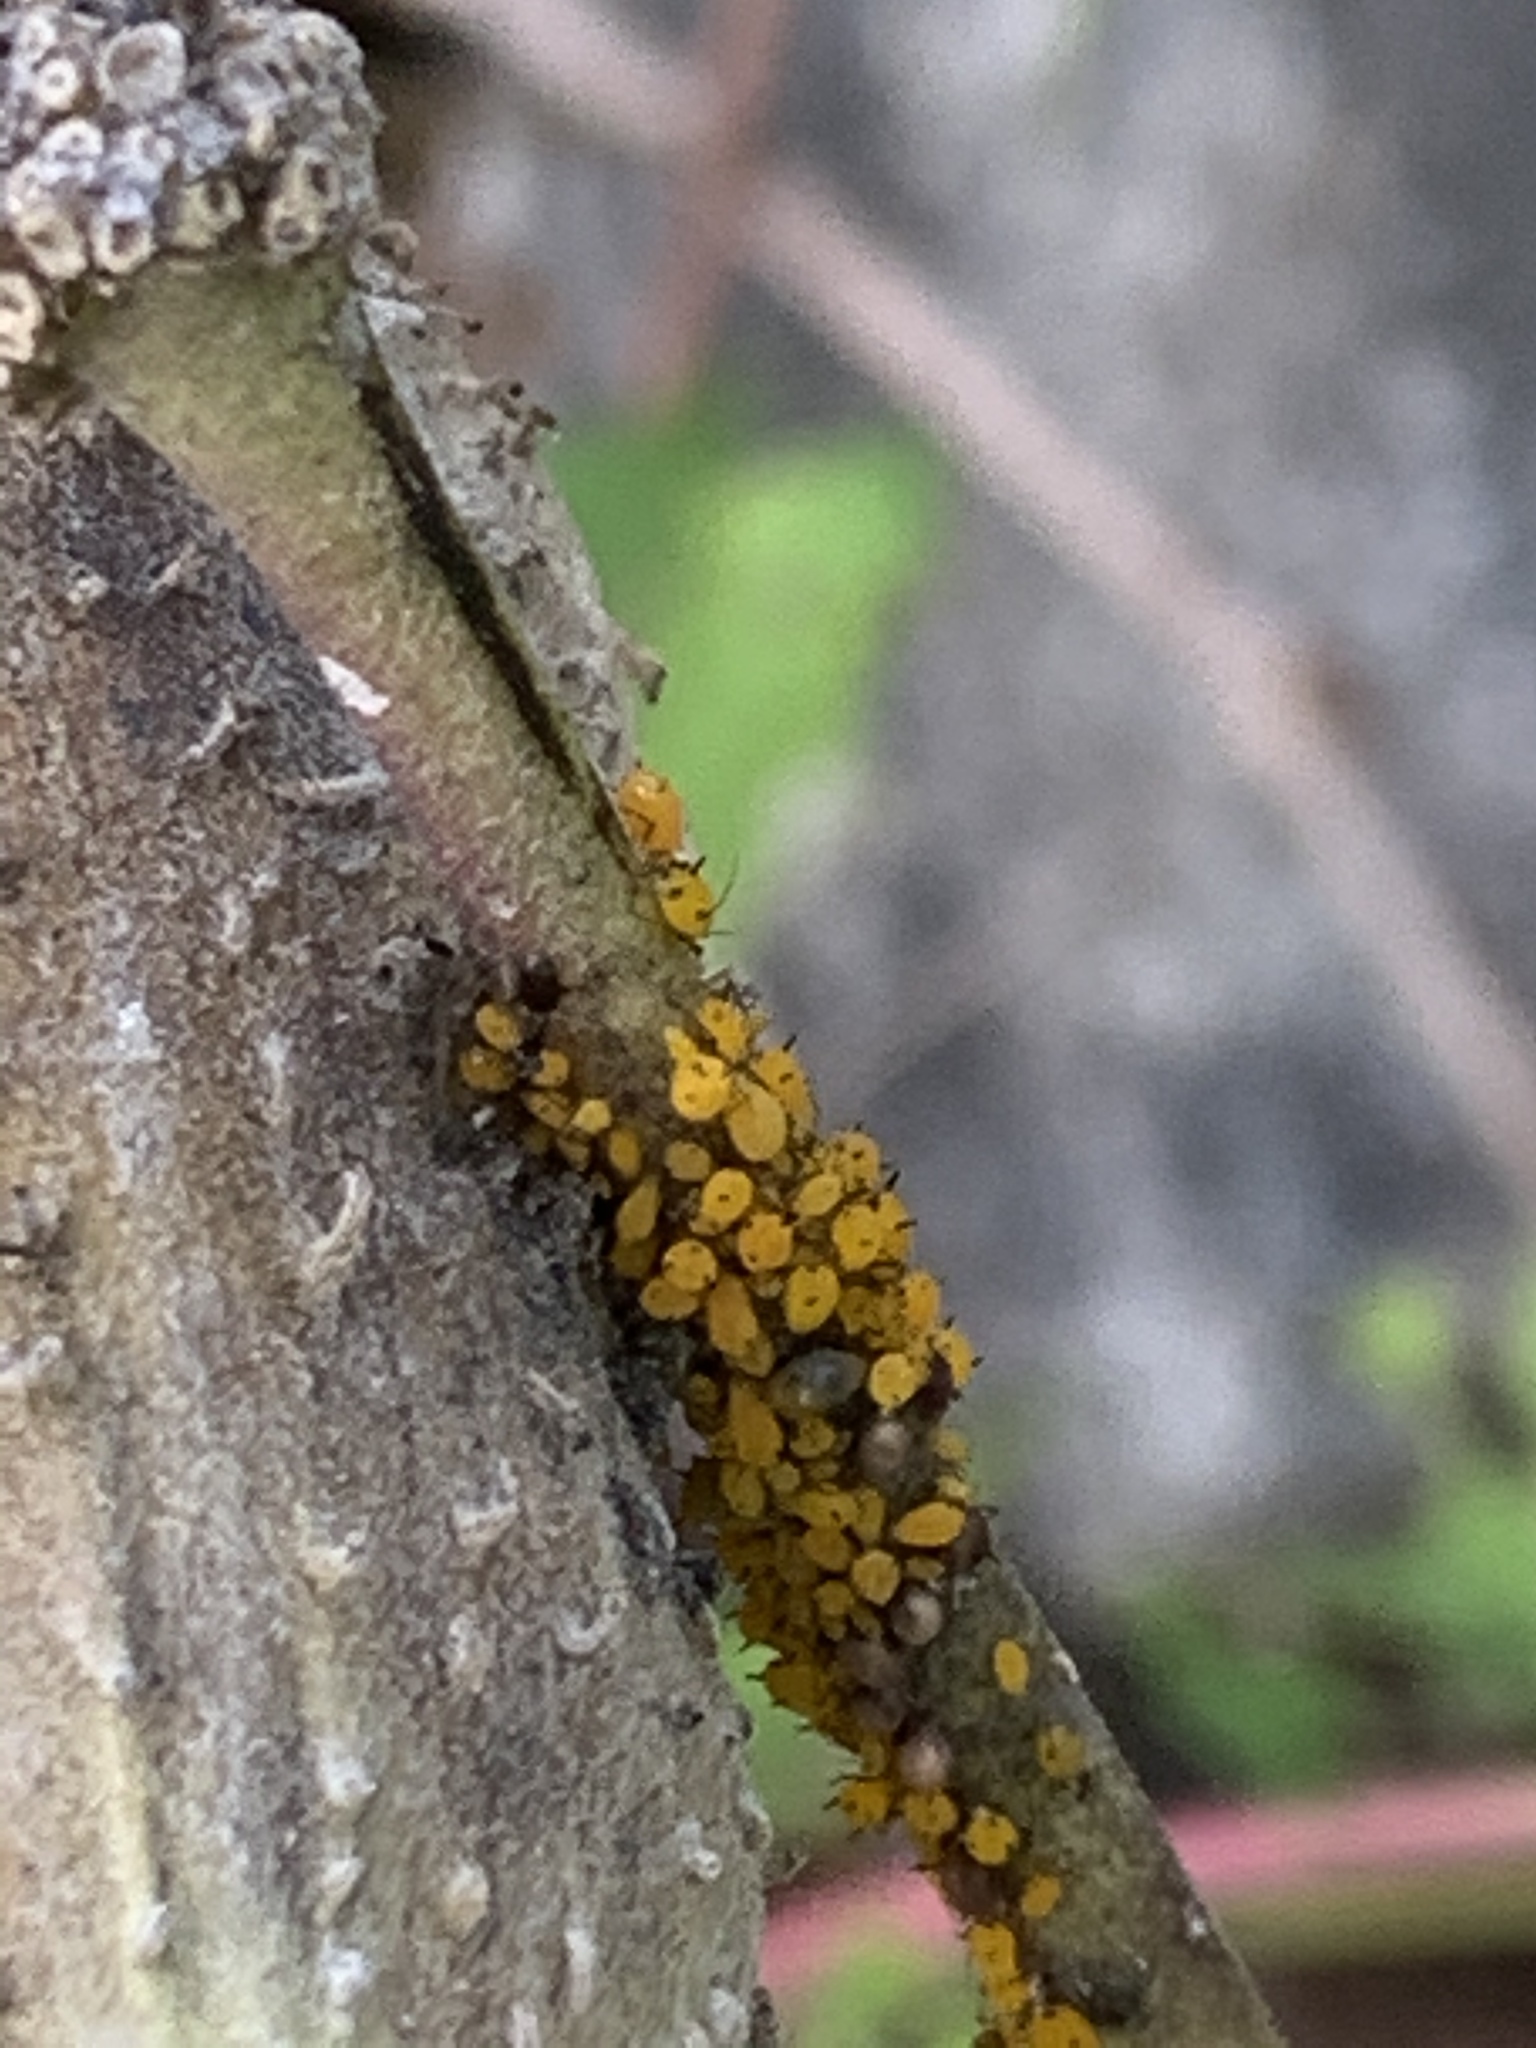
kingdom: Animalia
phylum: Arthropoda
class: Insecta
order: Hemiptera
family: Aphididae
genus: Aphis
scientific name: Aphis nerii
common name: Oleander aphid
